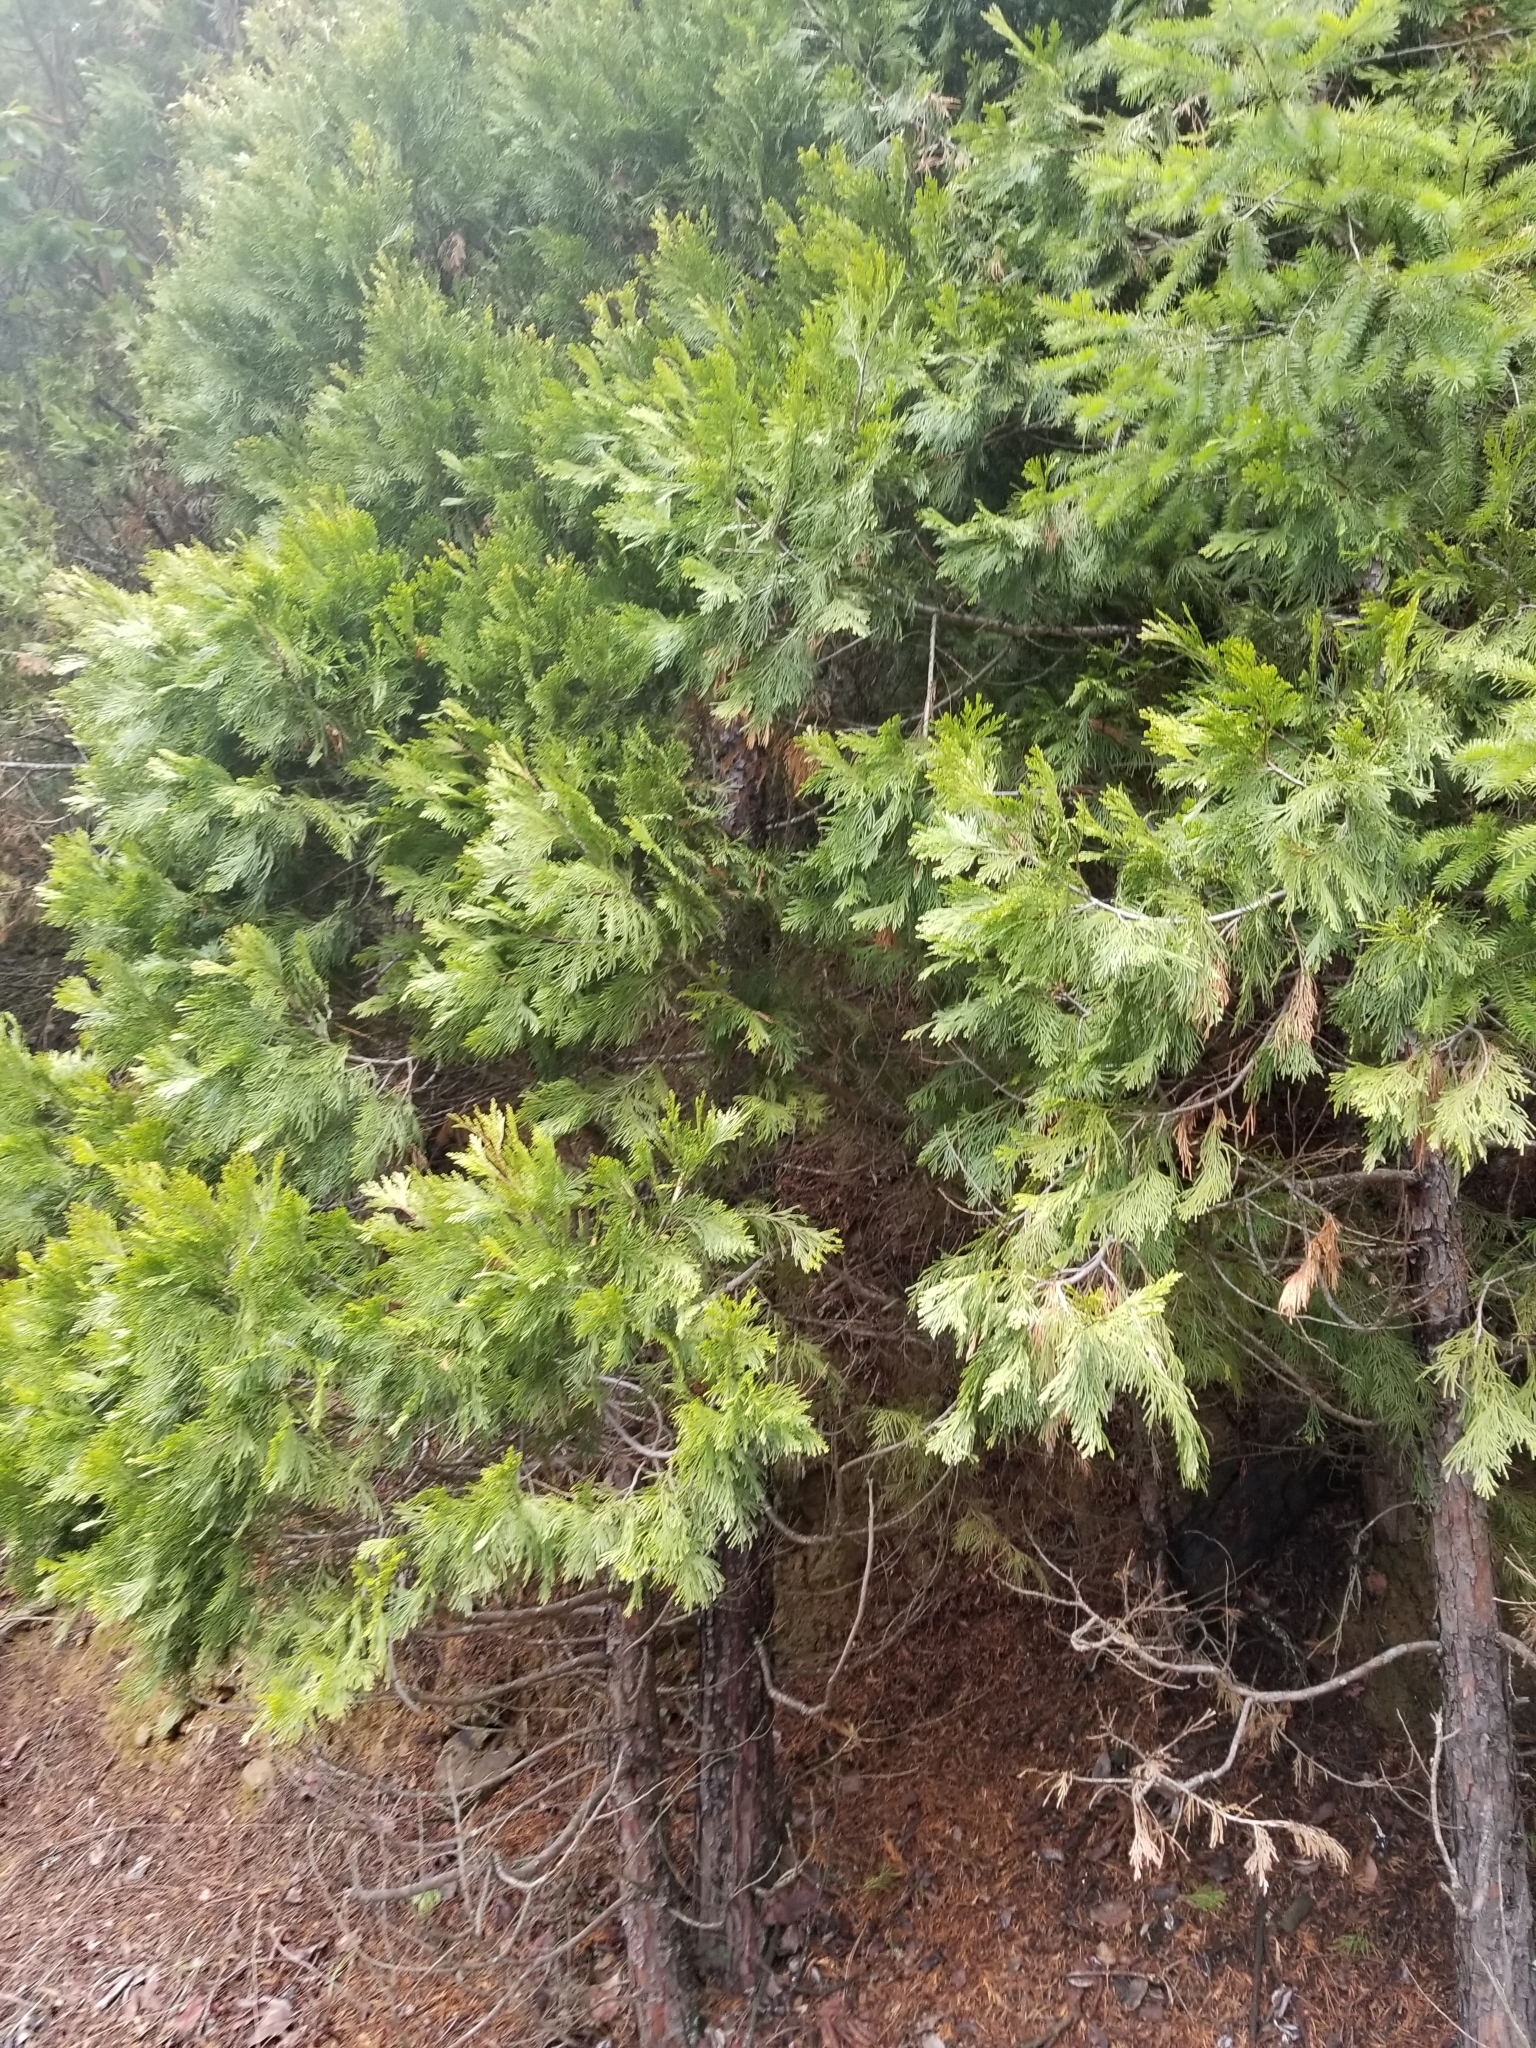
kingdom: Plantae
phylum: Tracheophyta
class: Pinopsida
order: Pinales
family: Cupressaceae
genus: Calocedrus
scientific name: Calocedrus decurrens
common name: Californian incense-cedar
